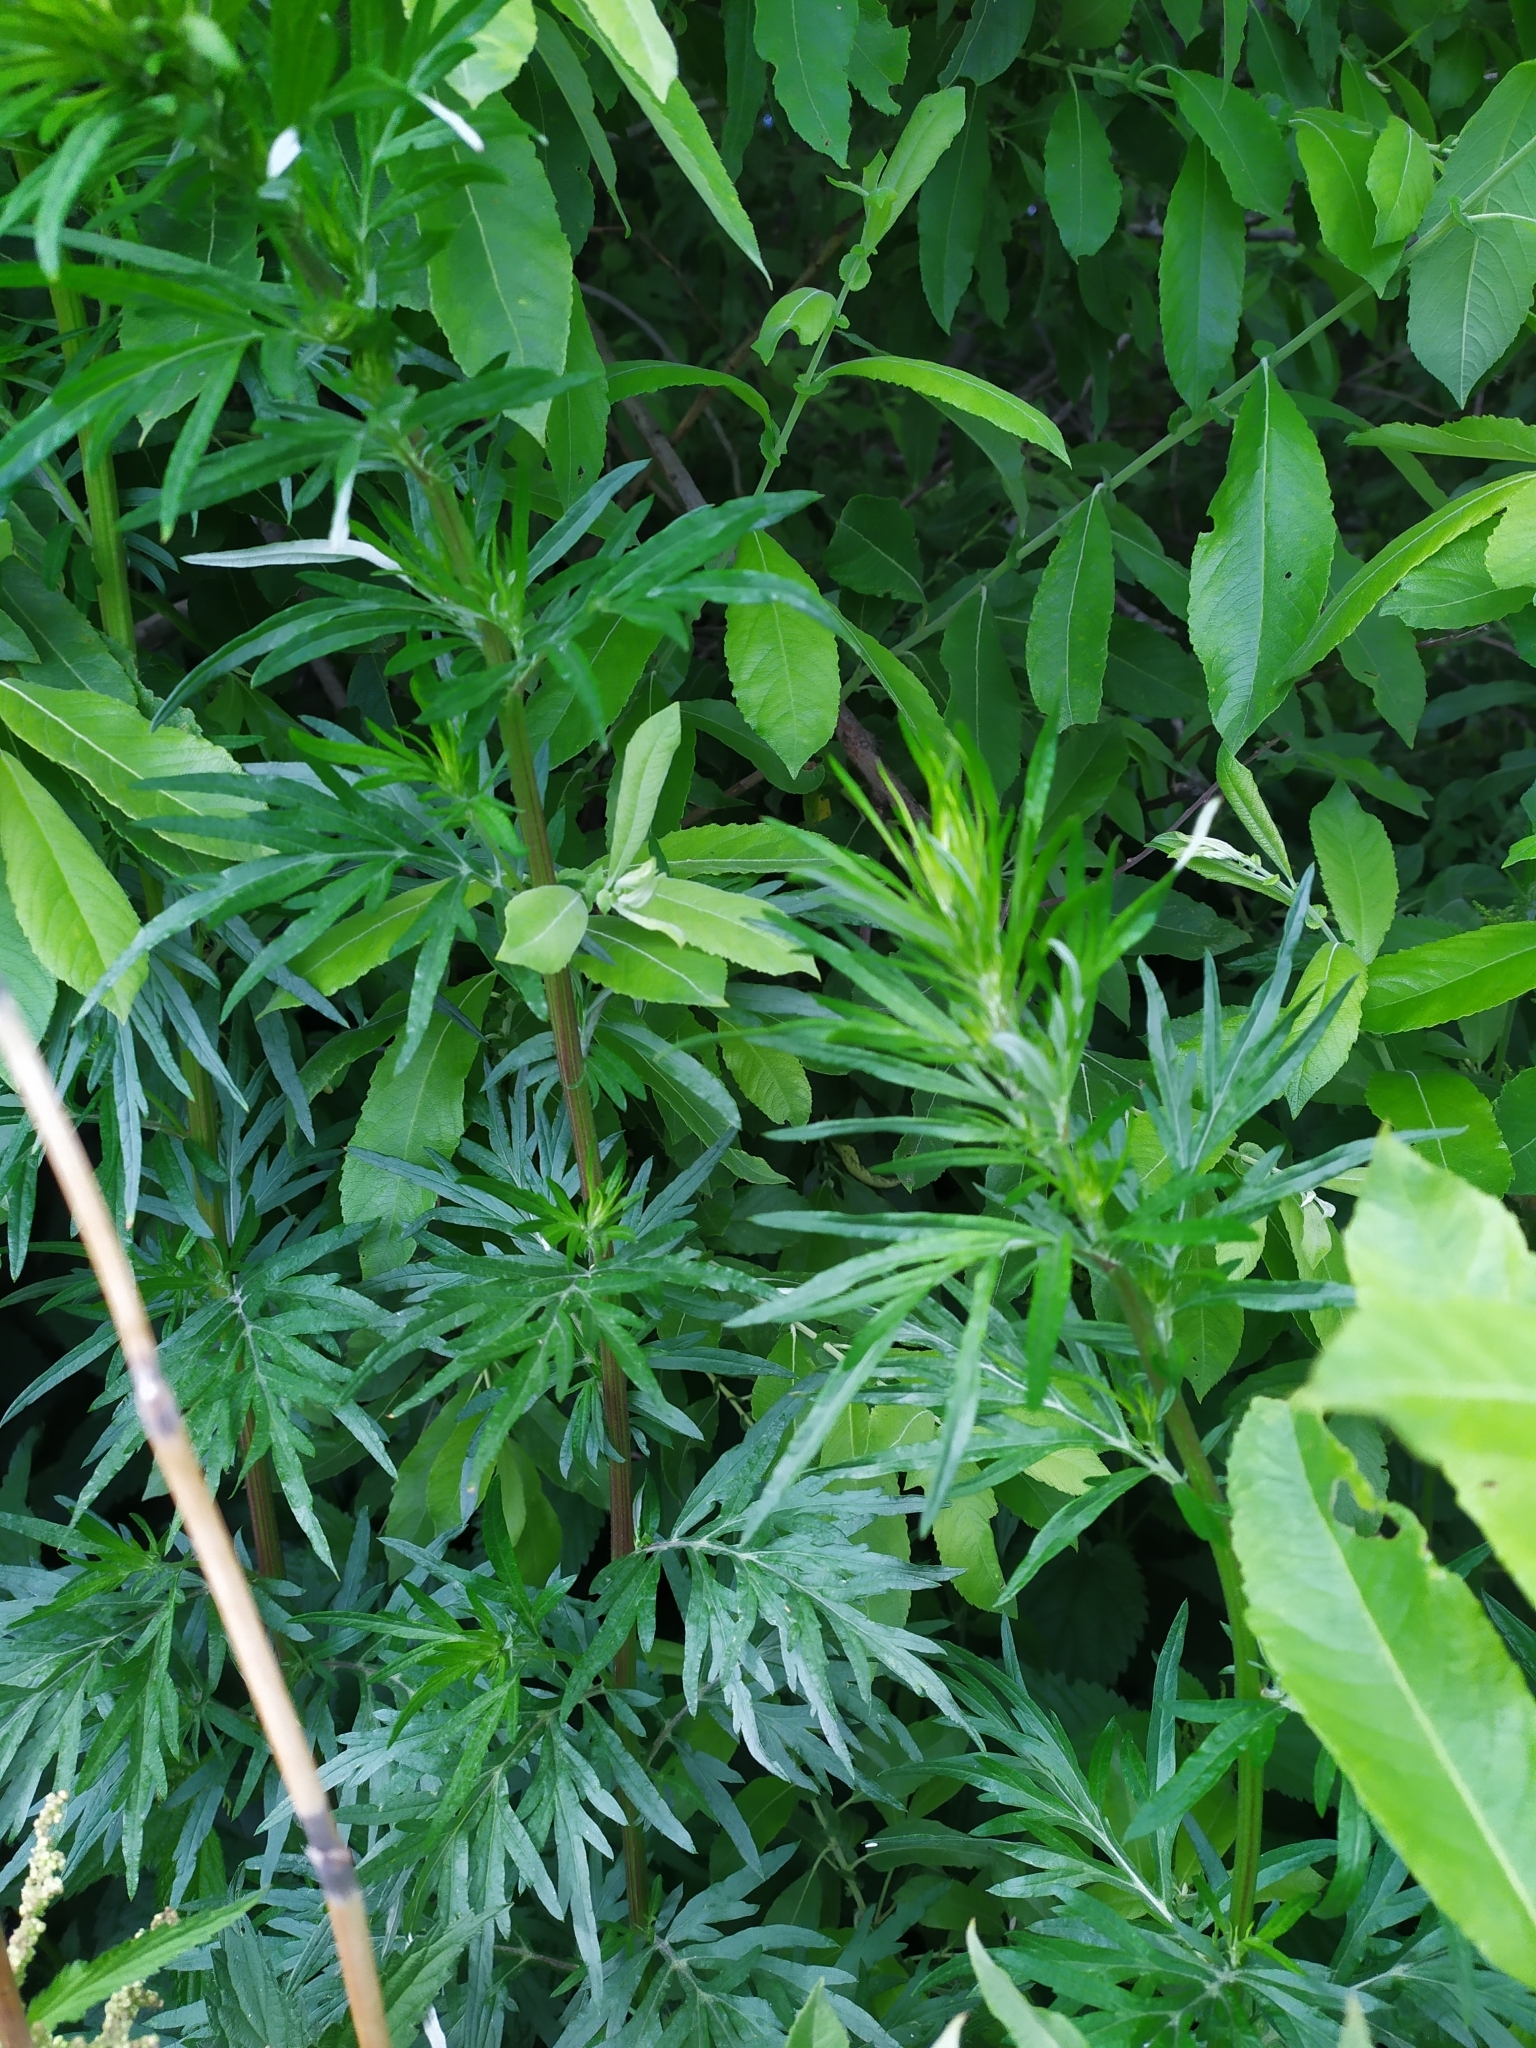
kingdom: Plantae
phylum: Tracheophyta
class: Magnoliopsida
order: Asterales
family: Asteraceae
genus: Artemisia
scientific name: Artemisia vulgaris
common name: Mugwort
